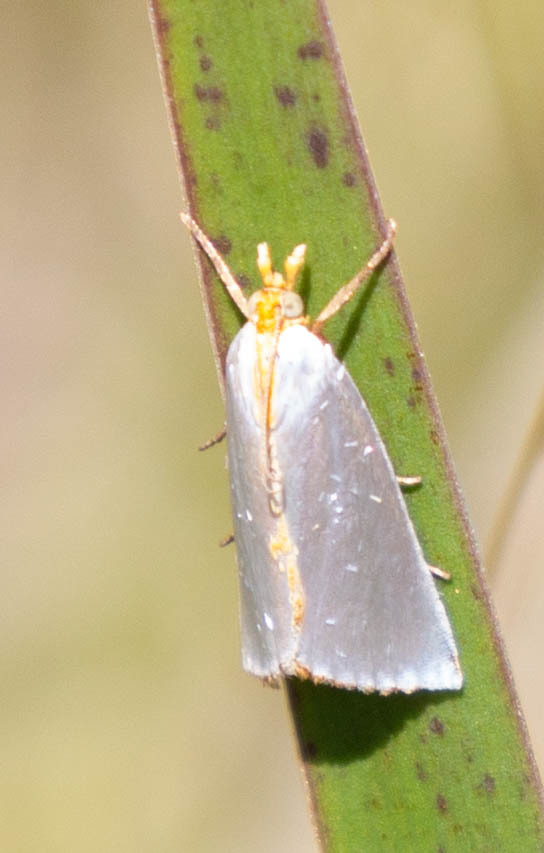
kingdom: Animalia
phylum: Arthropoda
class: Insecta
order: Lepidoptera
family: Crambidae
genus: Argyria
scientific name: Argyria
